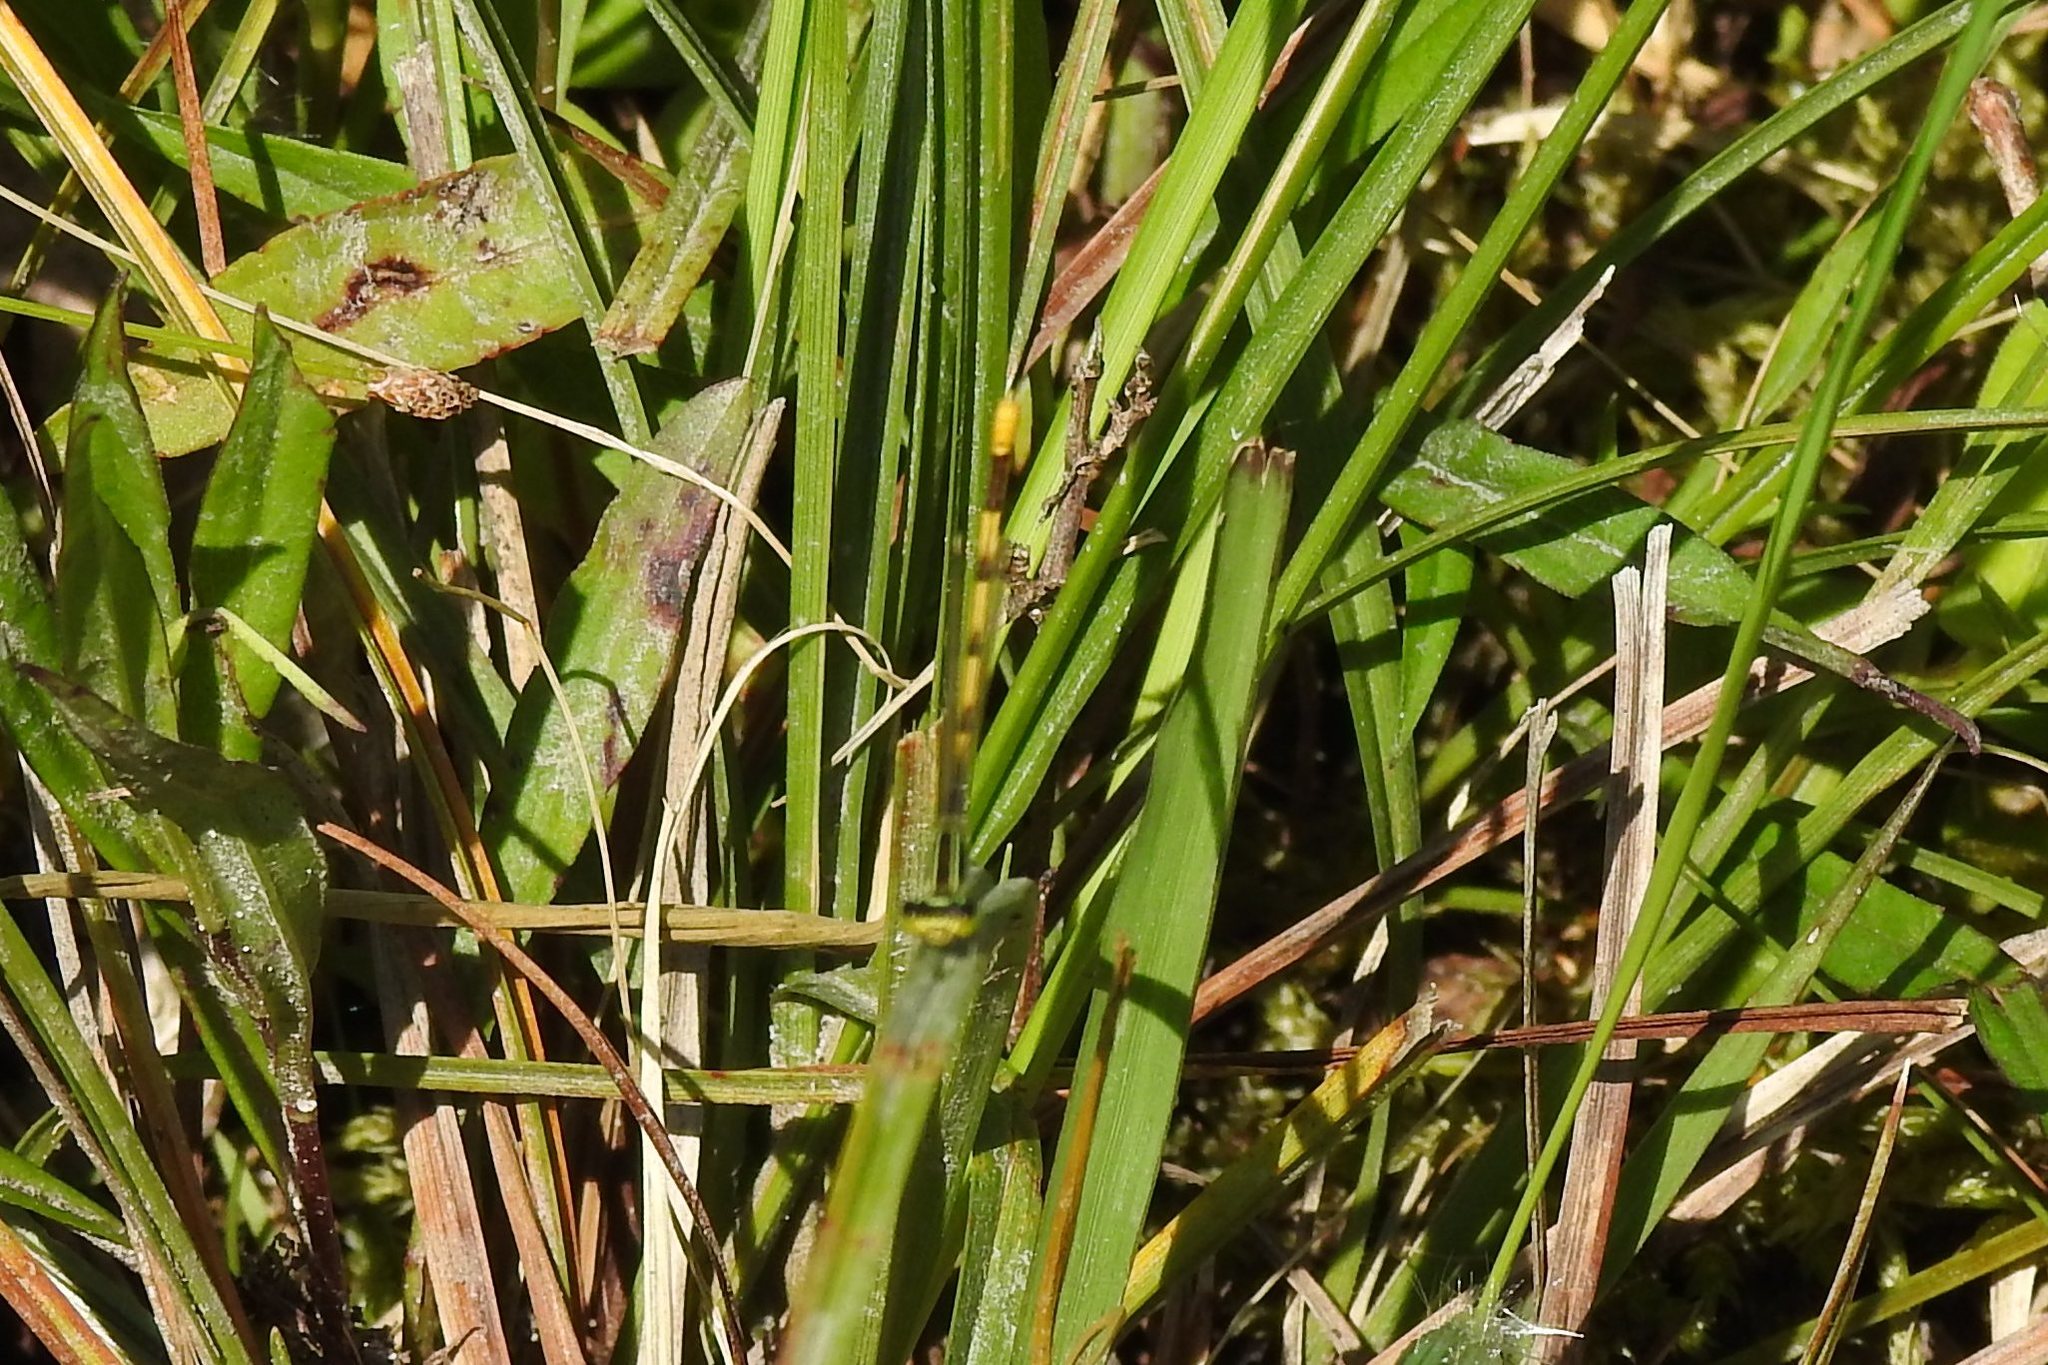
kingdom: Animalia
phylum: Arthropoda
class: Insecta
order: Odonata
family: Coenagrionidae
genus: Ischnura
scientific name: Ischnura hastata
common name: Citrine forktail
